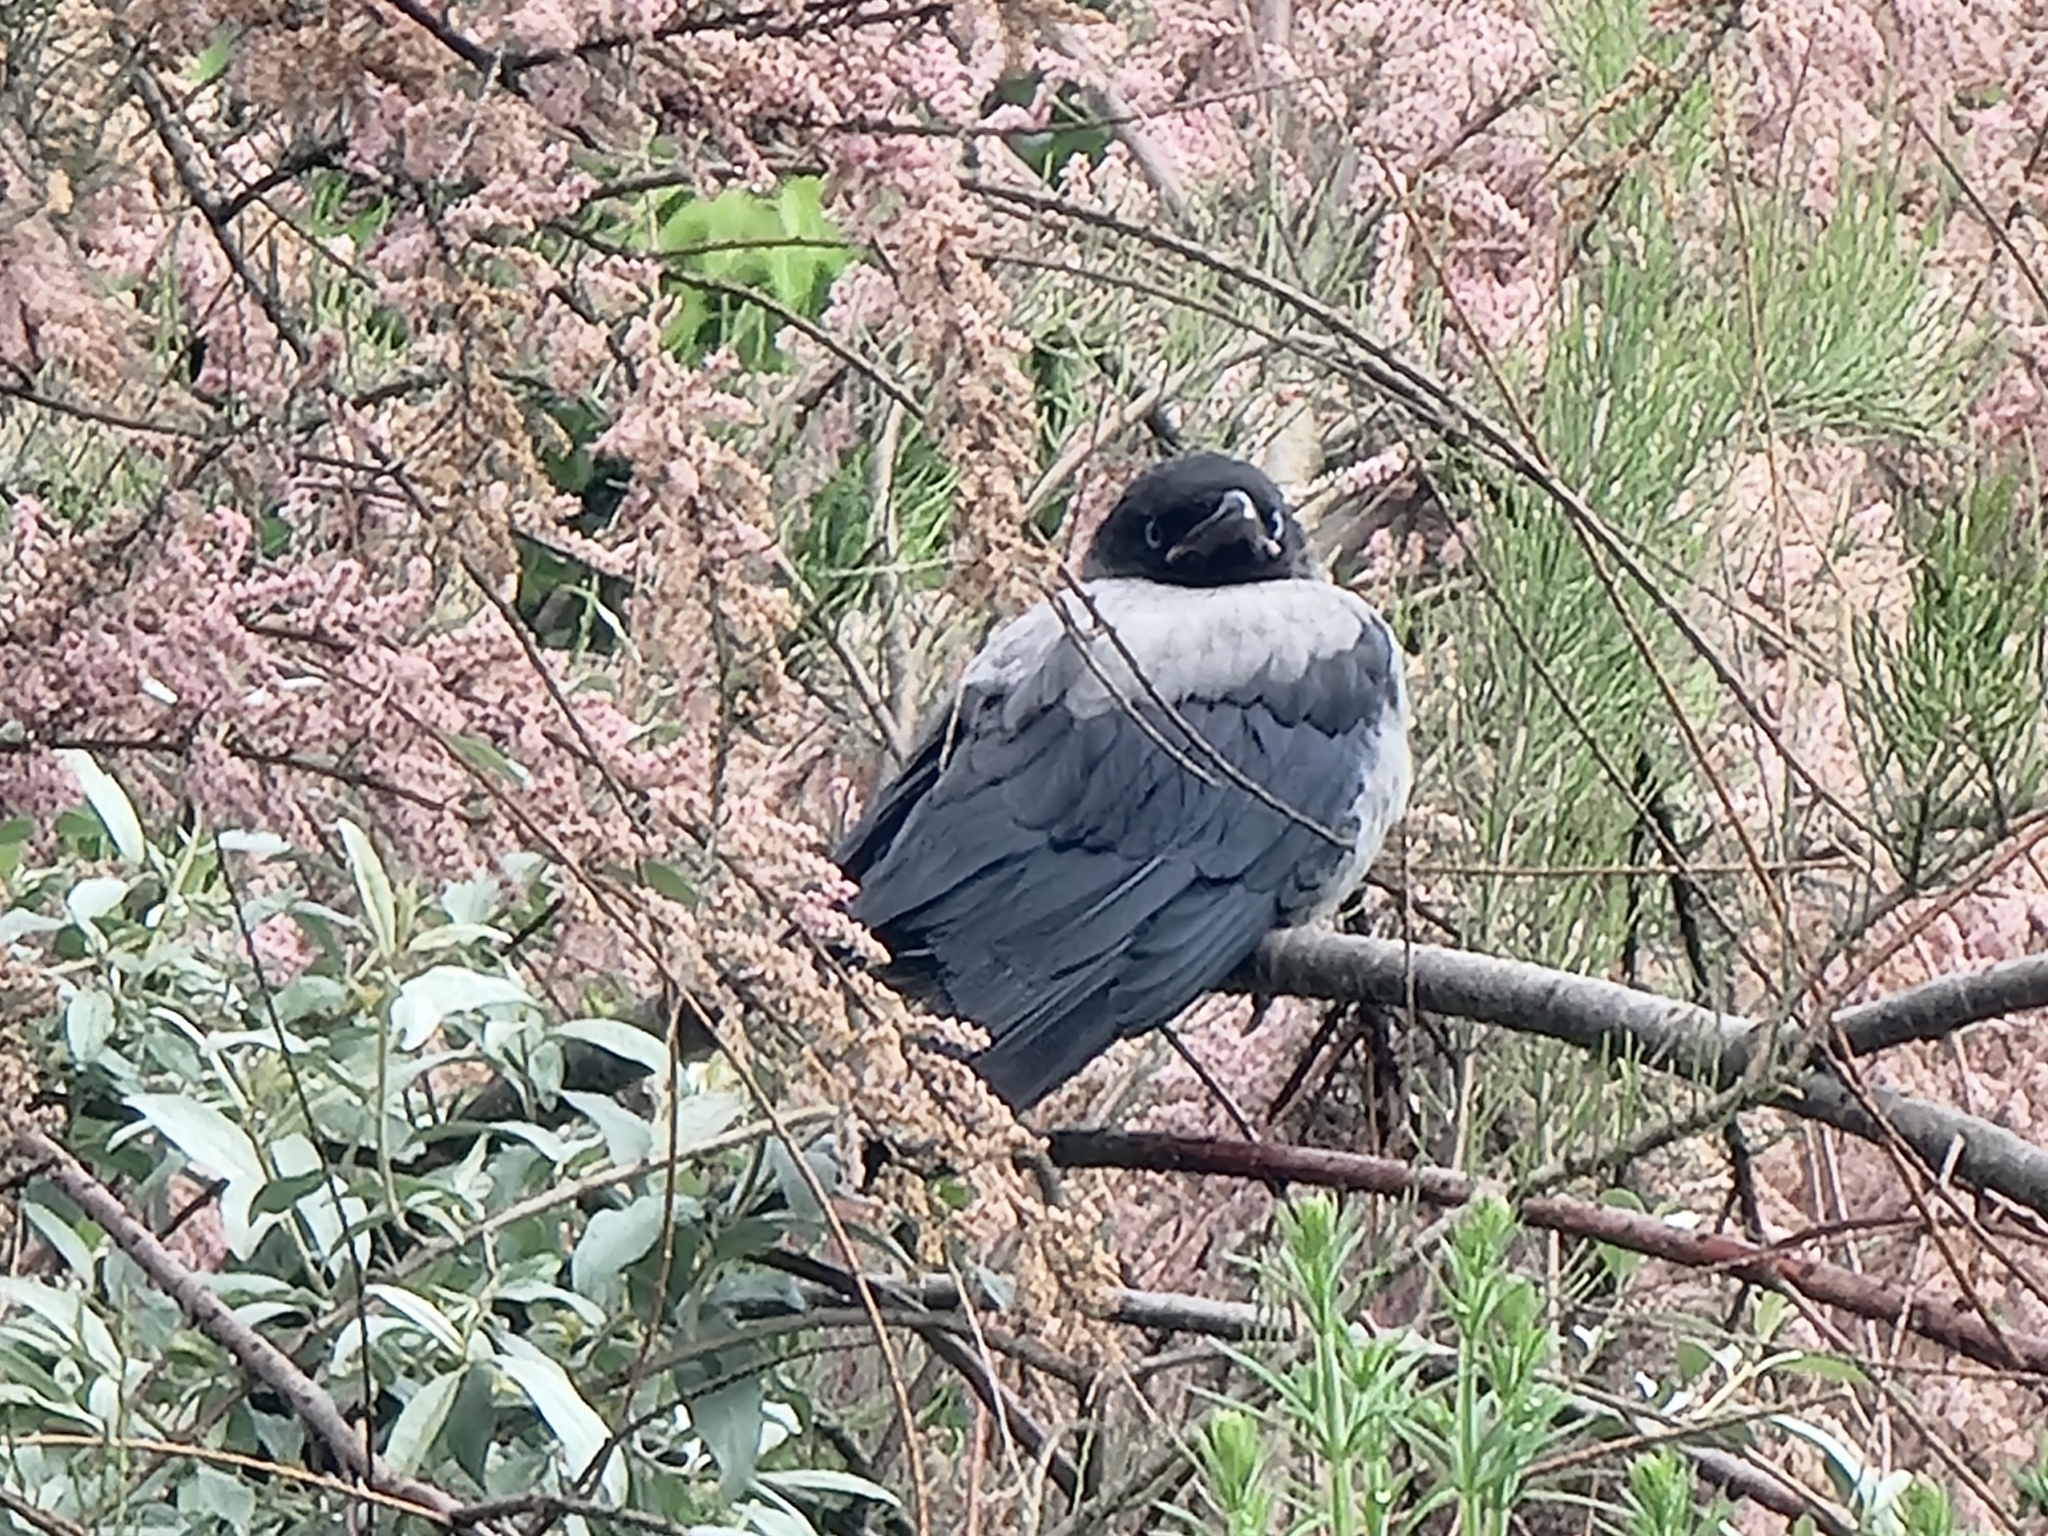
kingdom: Animalia
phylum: Chordata
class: Aves
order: Passeriformes
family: Corvidae
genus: Corvus
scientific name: Corvus cornix
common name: Hooded crow
